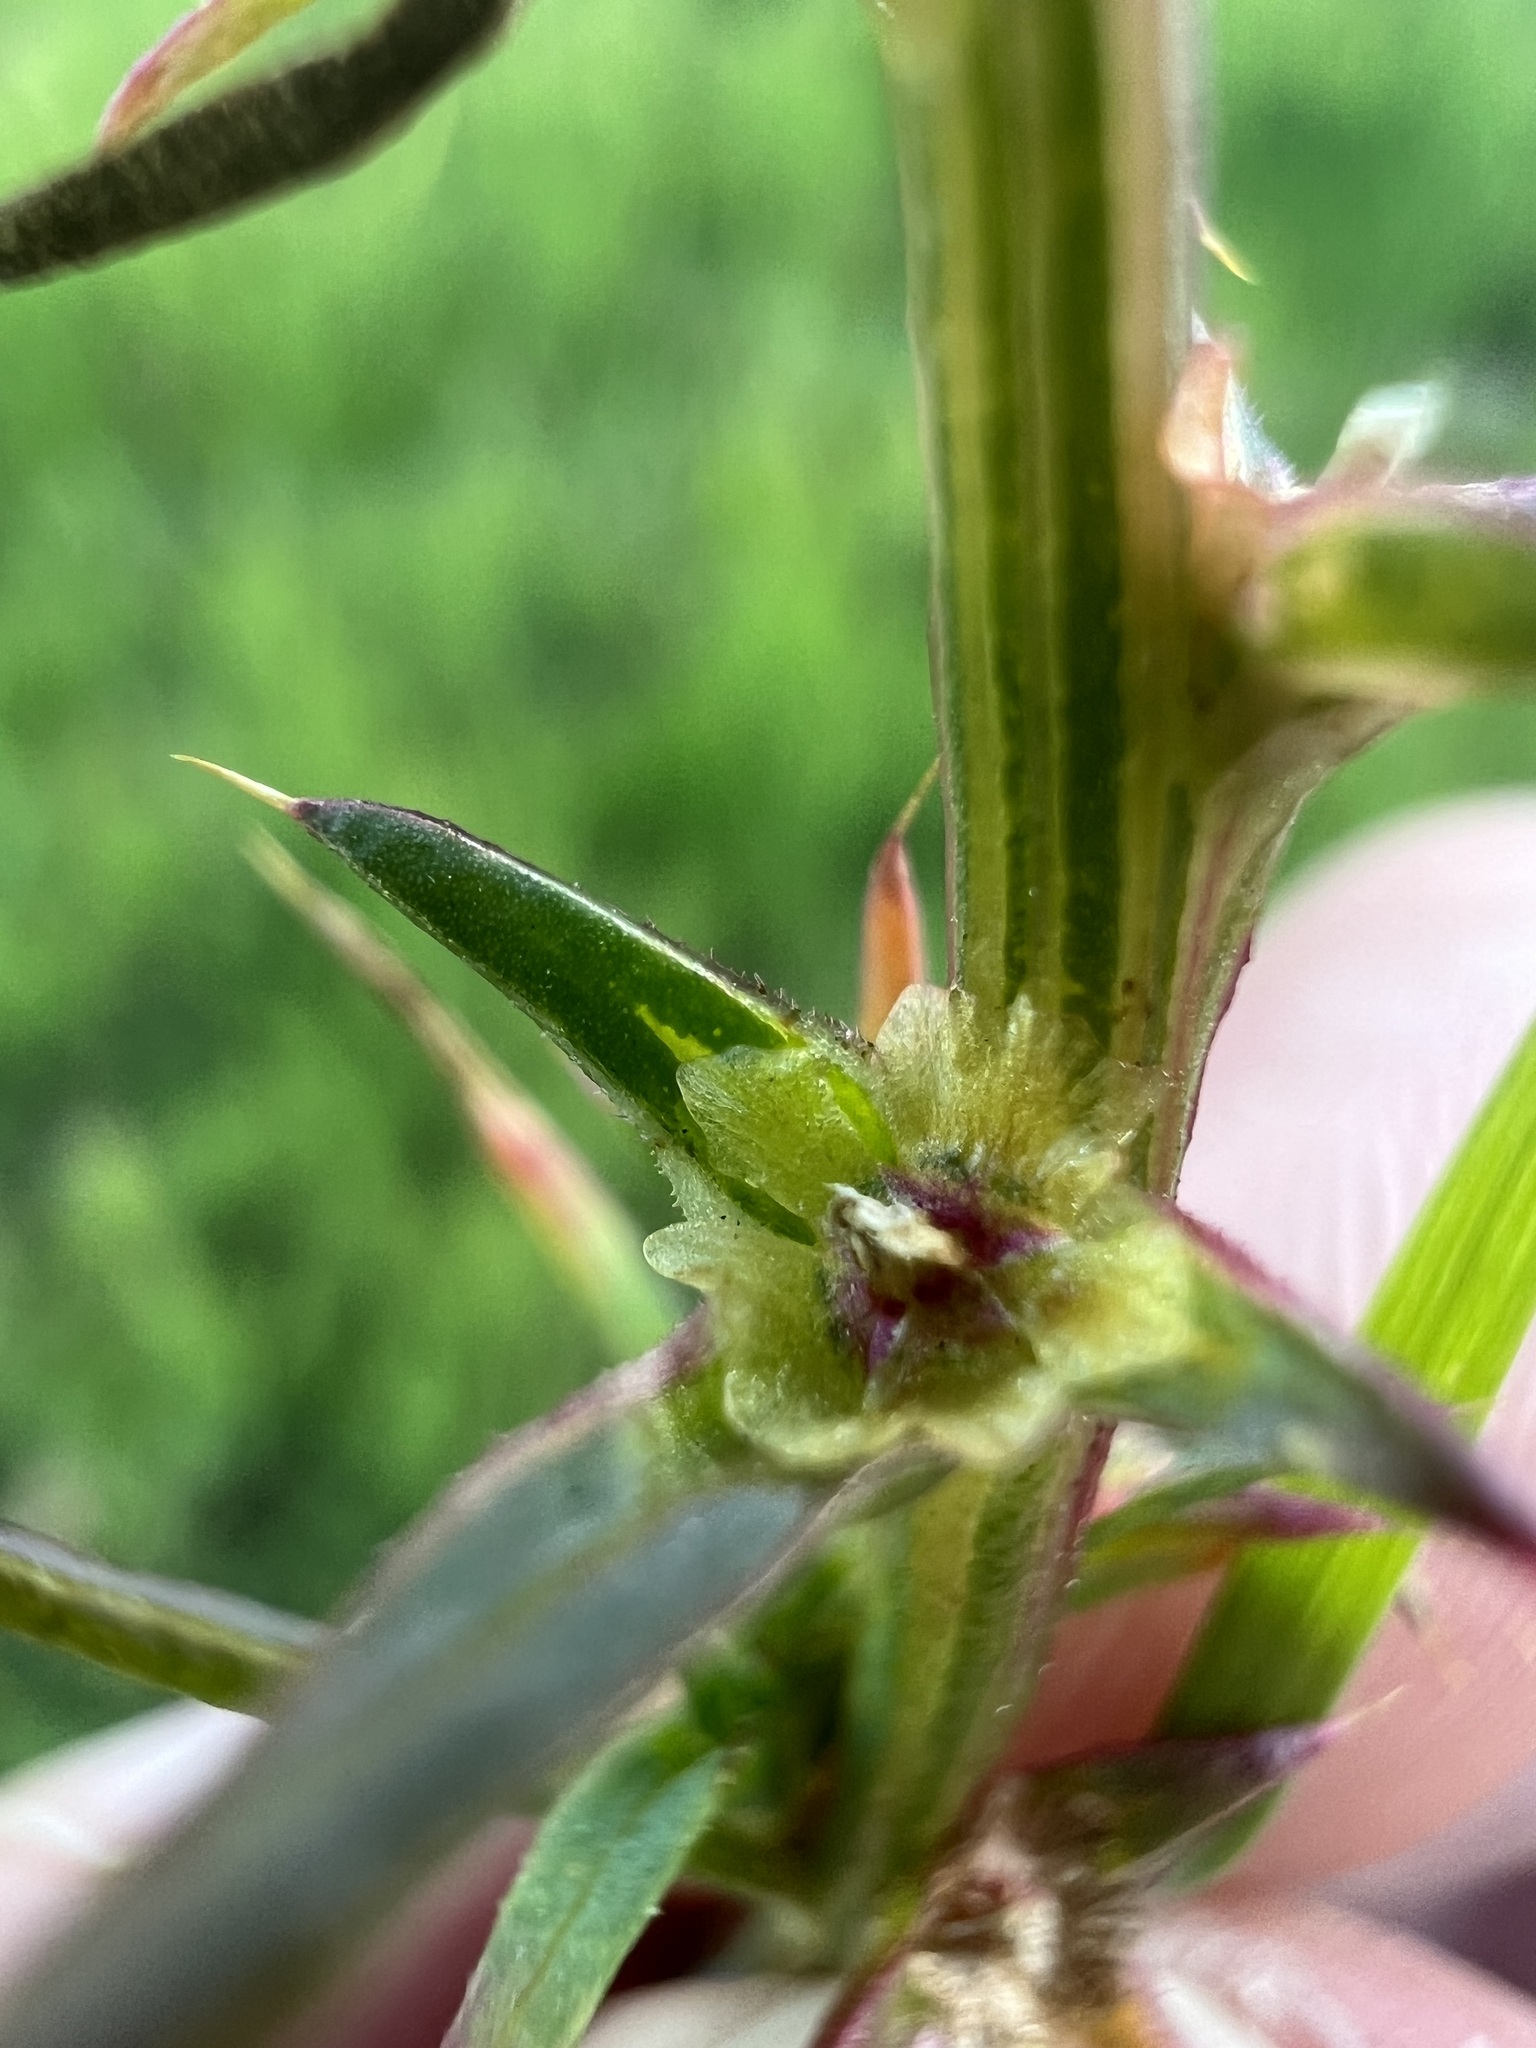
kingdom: Plantae
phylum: Tracheophyta
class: Magnoliopsida
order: Caryophyllales
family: Amaranthaceae
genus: Salsola
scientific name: Salsola australis
